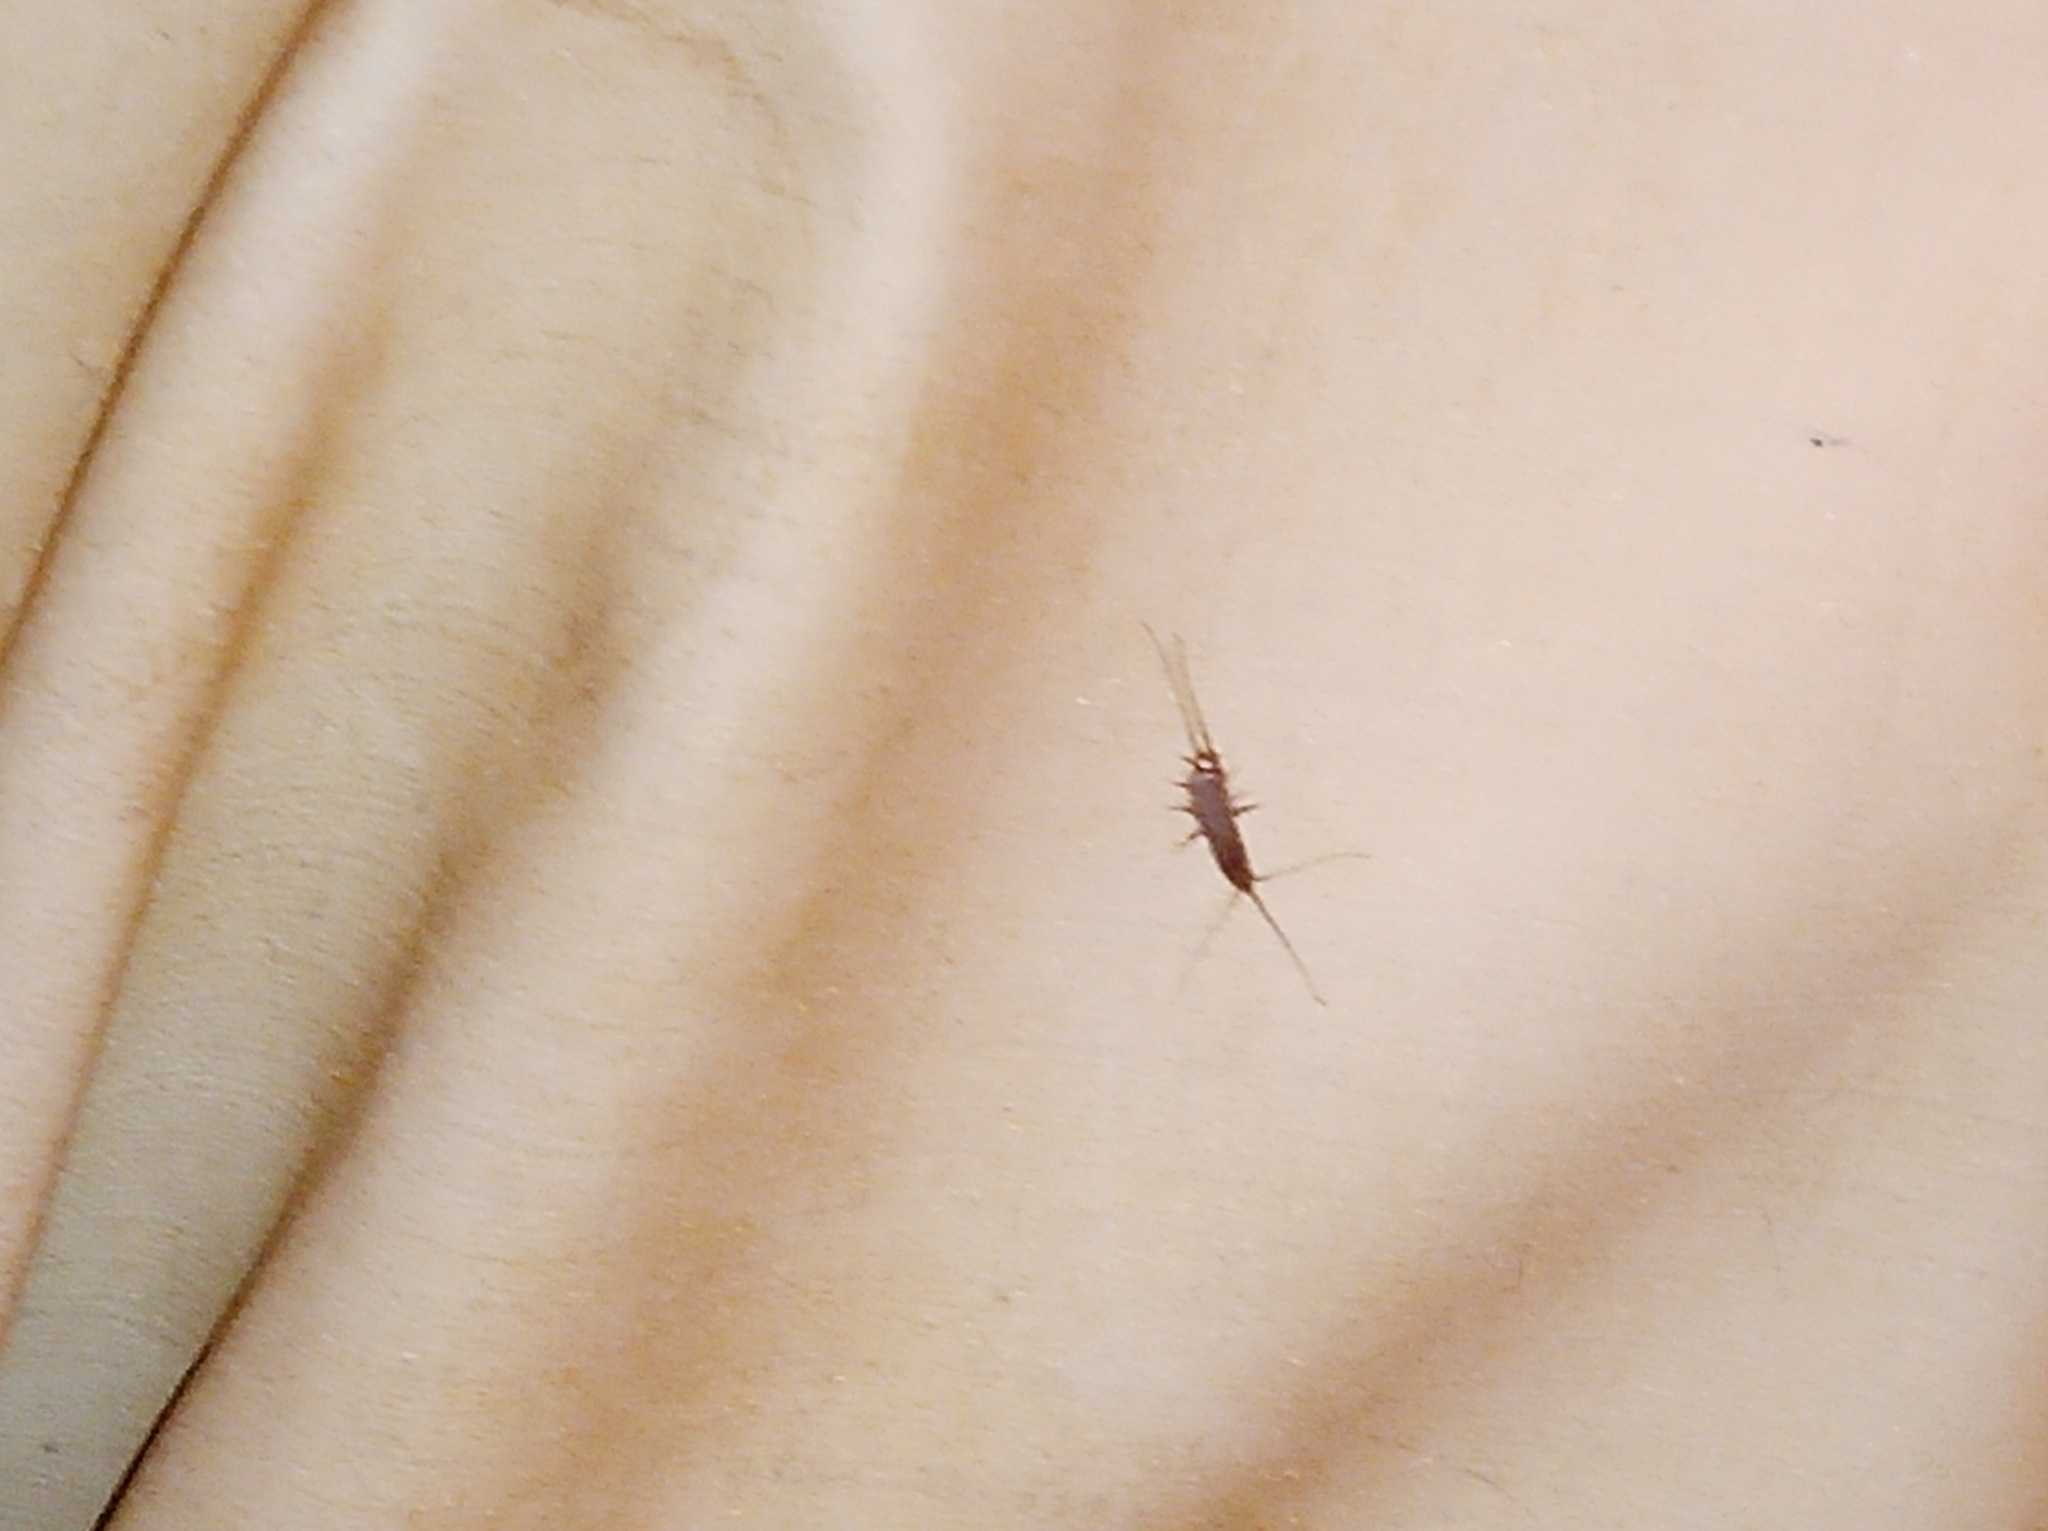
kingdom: Animalia
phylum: Arthropoda
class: Insecta
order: Zygentoma
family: Lepismatidae
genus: Ctenolepisma
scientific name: Ctenolepisma lineata
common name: Four-lined silverfish
